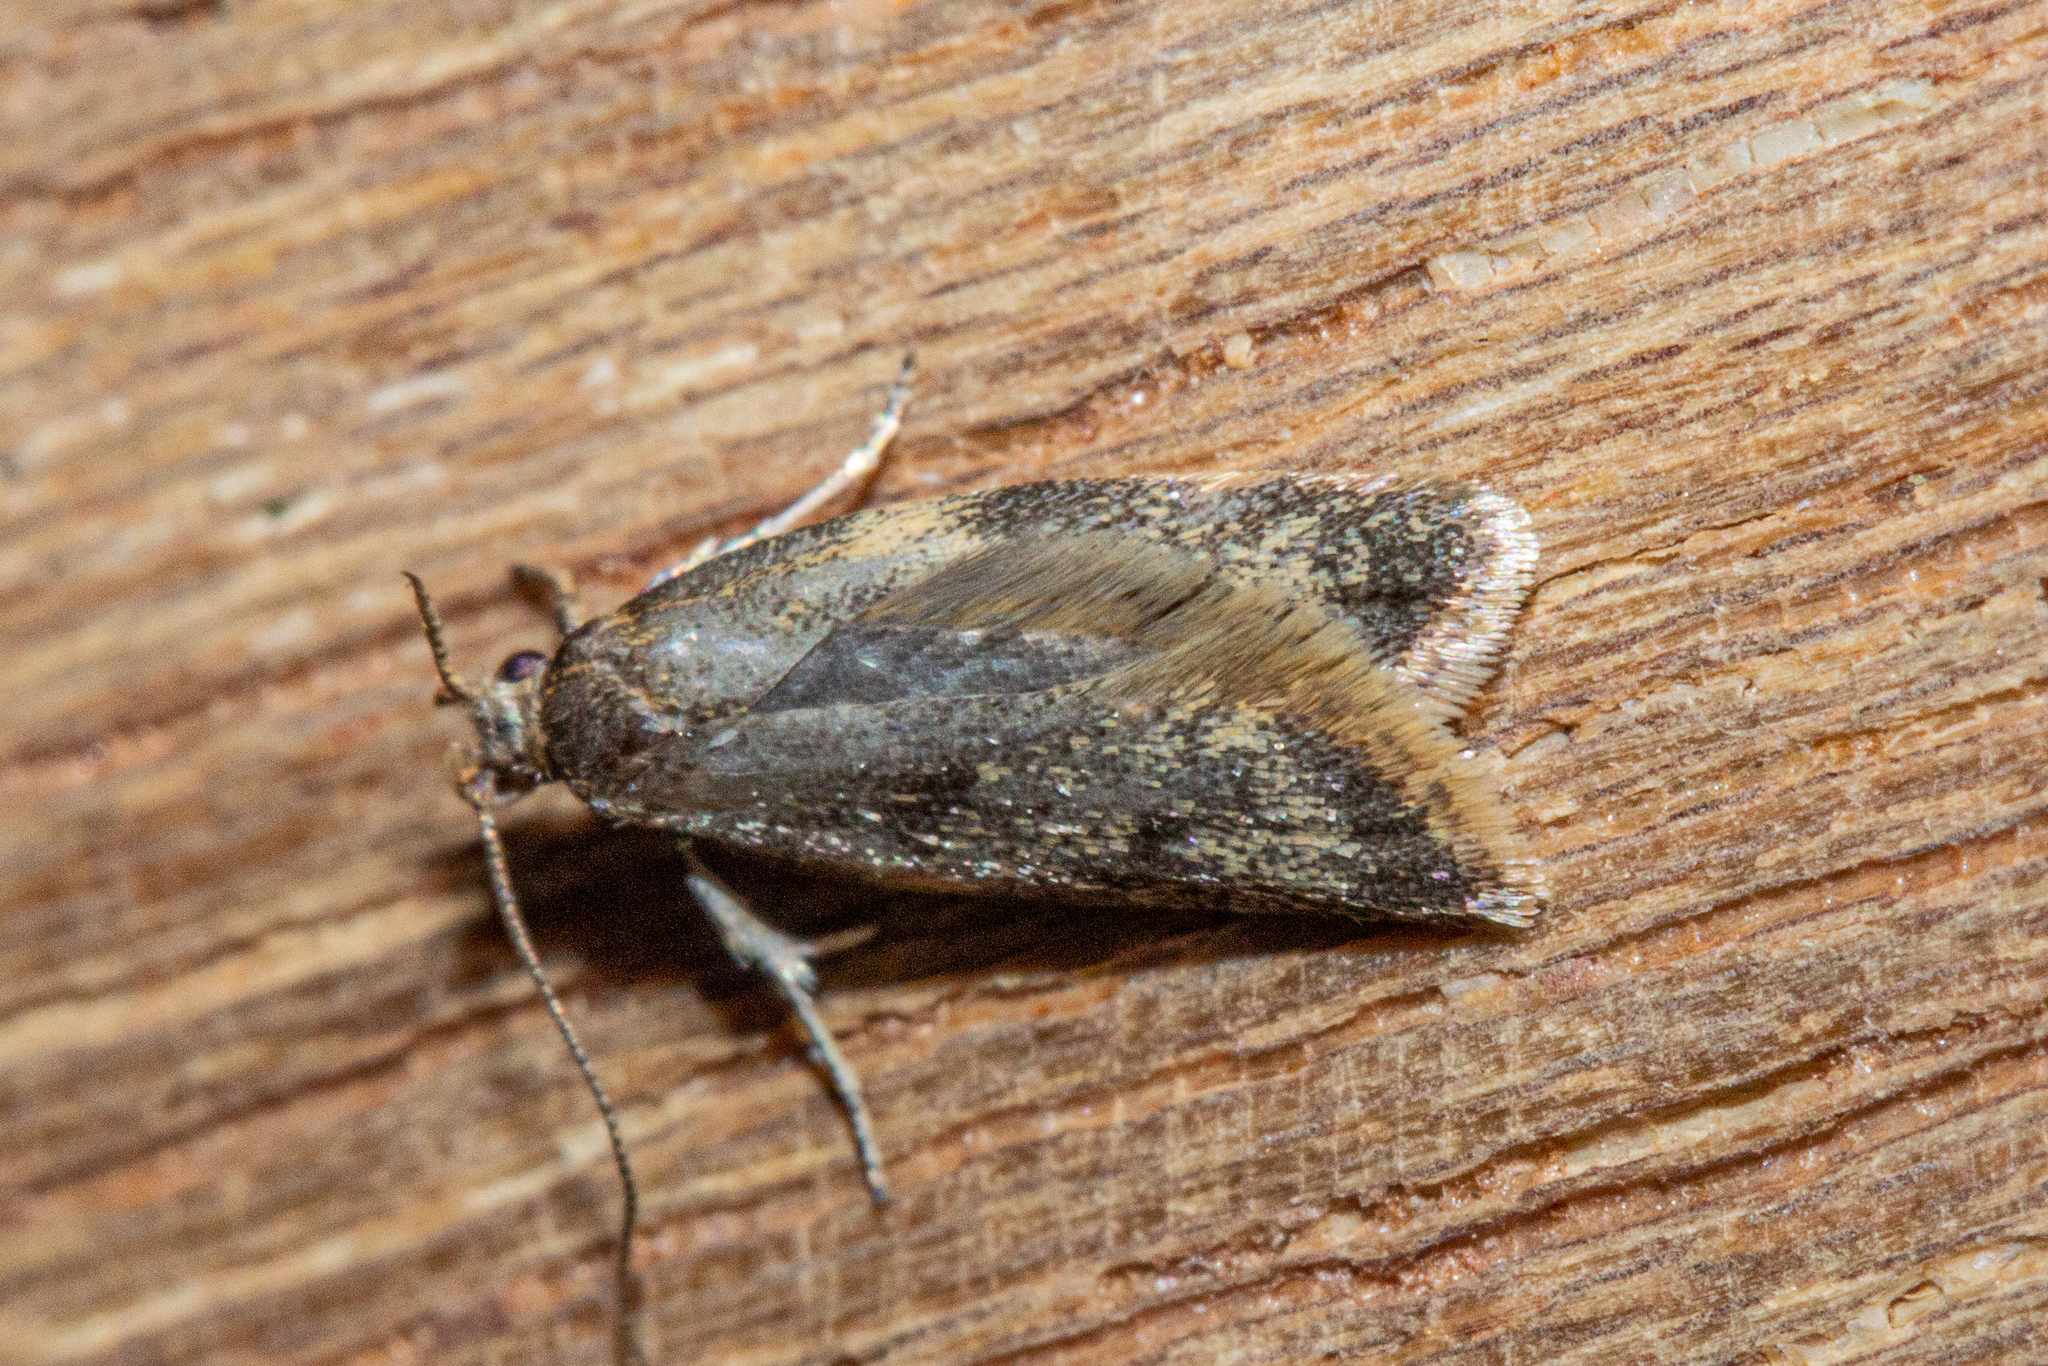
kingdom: Animalia
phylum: Arthropoda
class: Insecta
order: Lepidoptera
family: Oecophoridae
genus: Gymnobathra
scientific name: Gymnobathra tholodella
